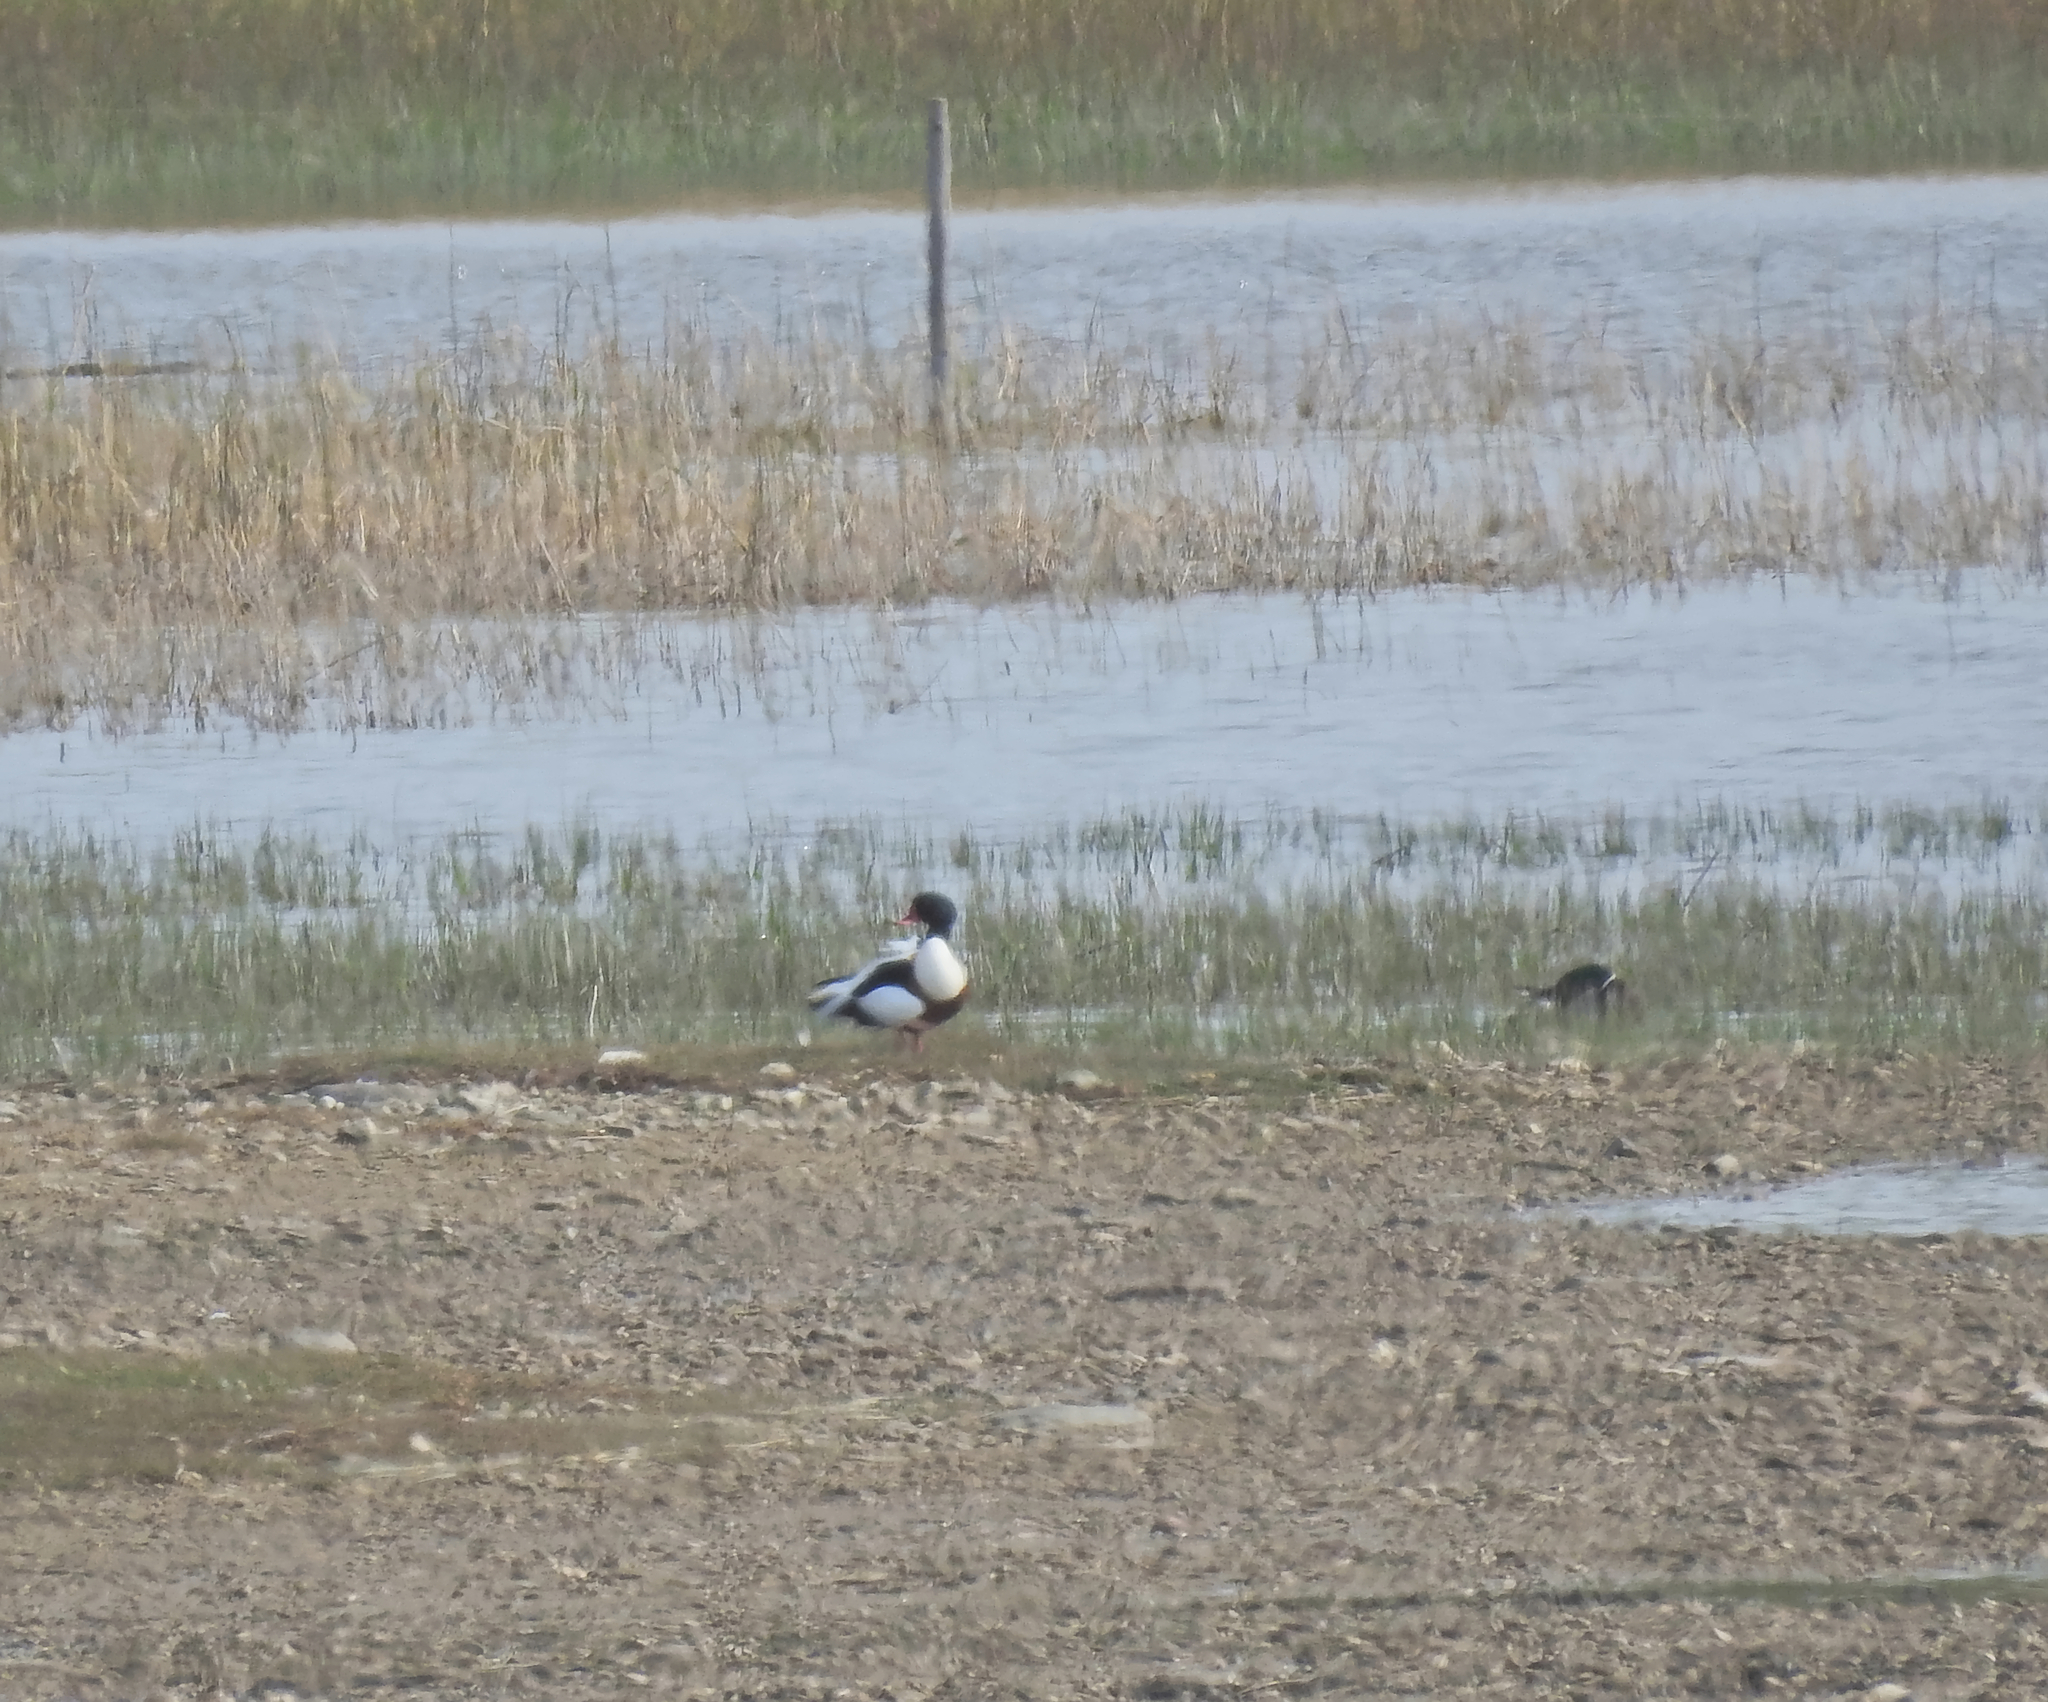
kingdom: Animalia
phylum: Chordata
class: Aves
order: Anseriformes
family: Anatidae
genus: Tadorna
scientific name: Tadorna tadorna
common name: Common shelduck
